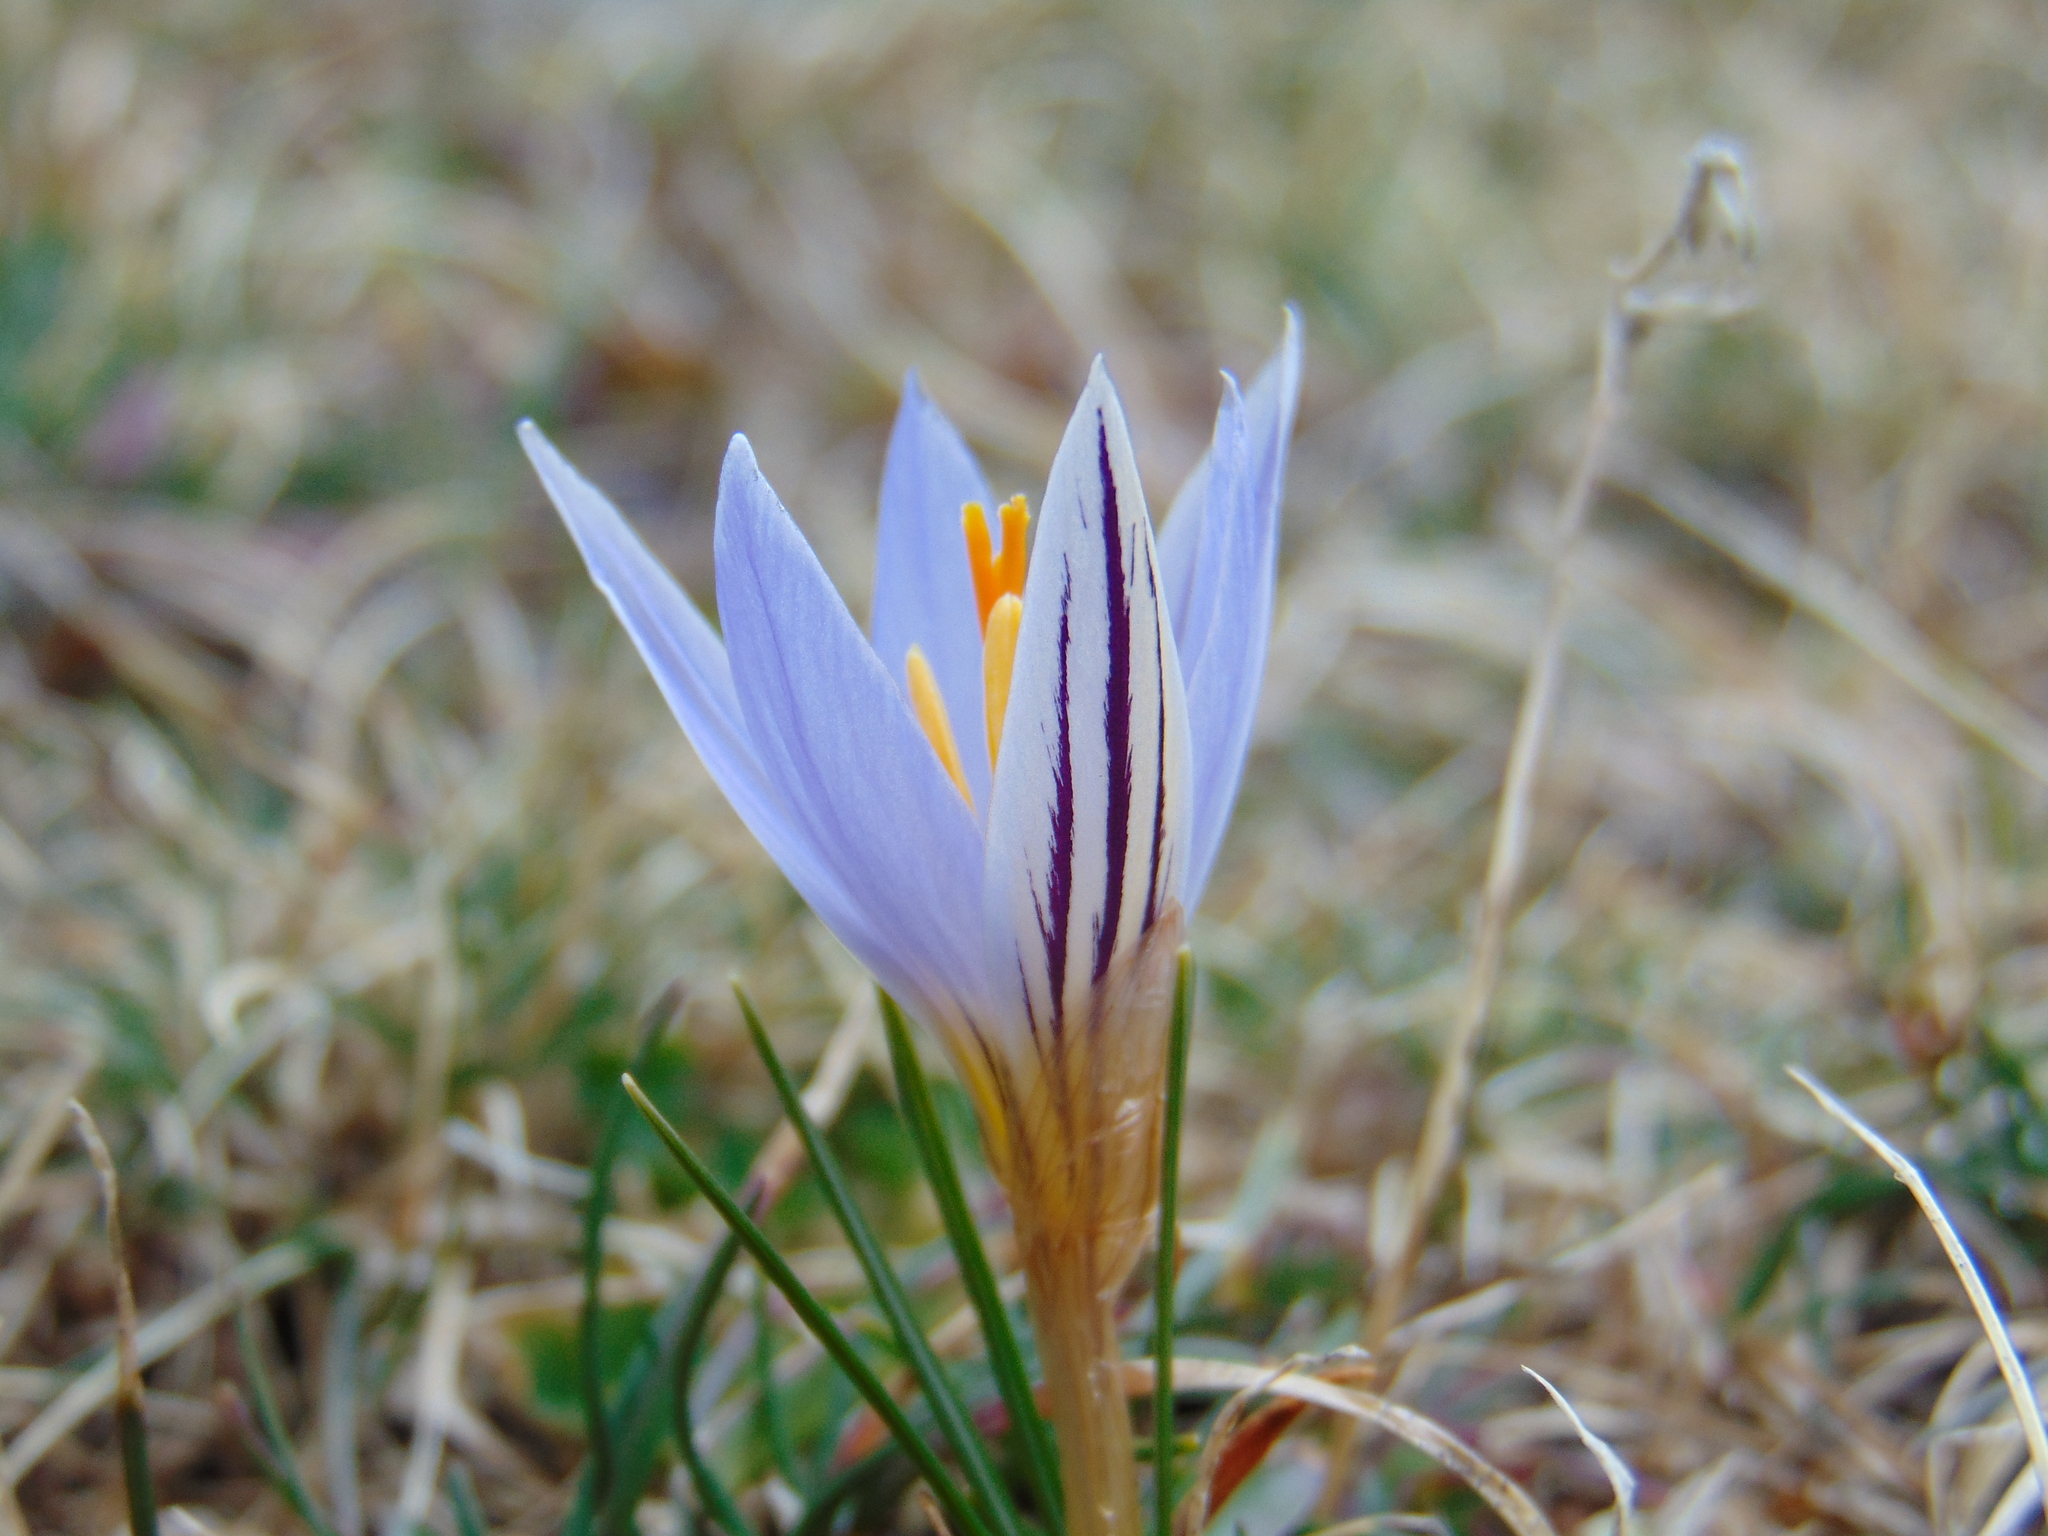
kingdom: Plantae
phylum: Tracheophyta
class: Liliopsida
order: Asparagales
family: Iridaceae
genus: Crocus
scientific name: Crocus variegatus
